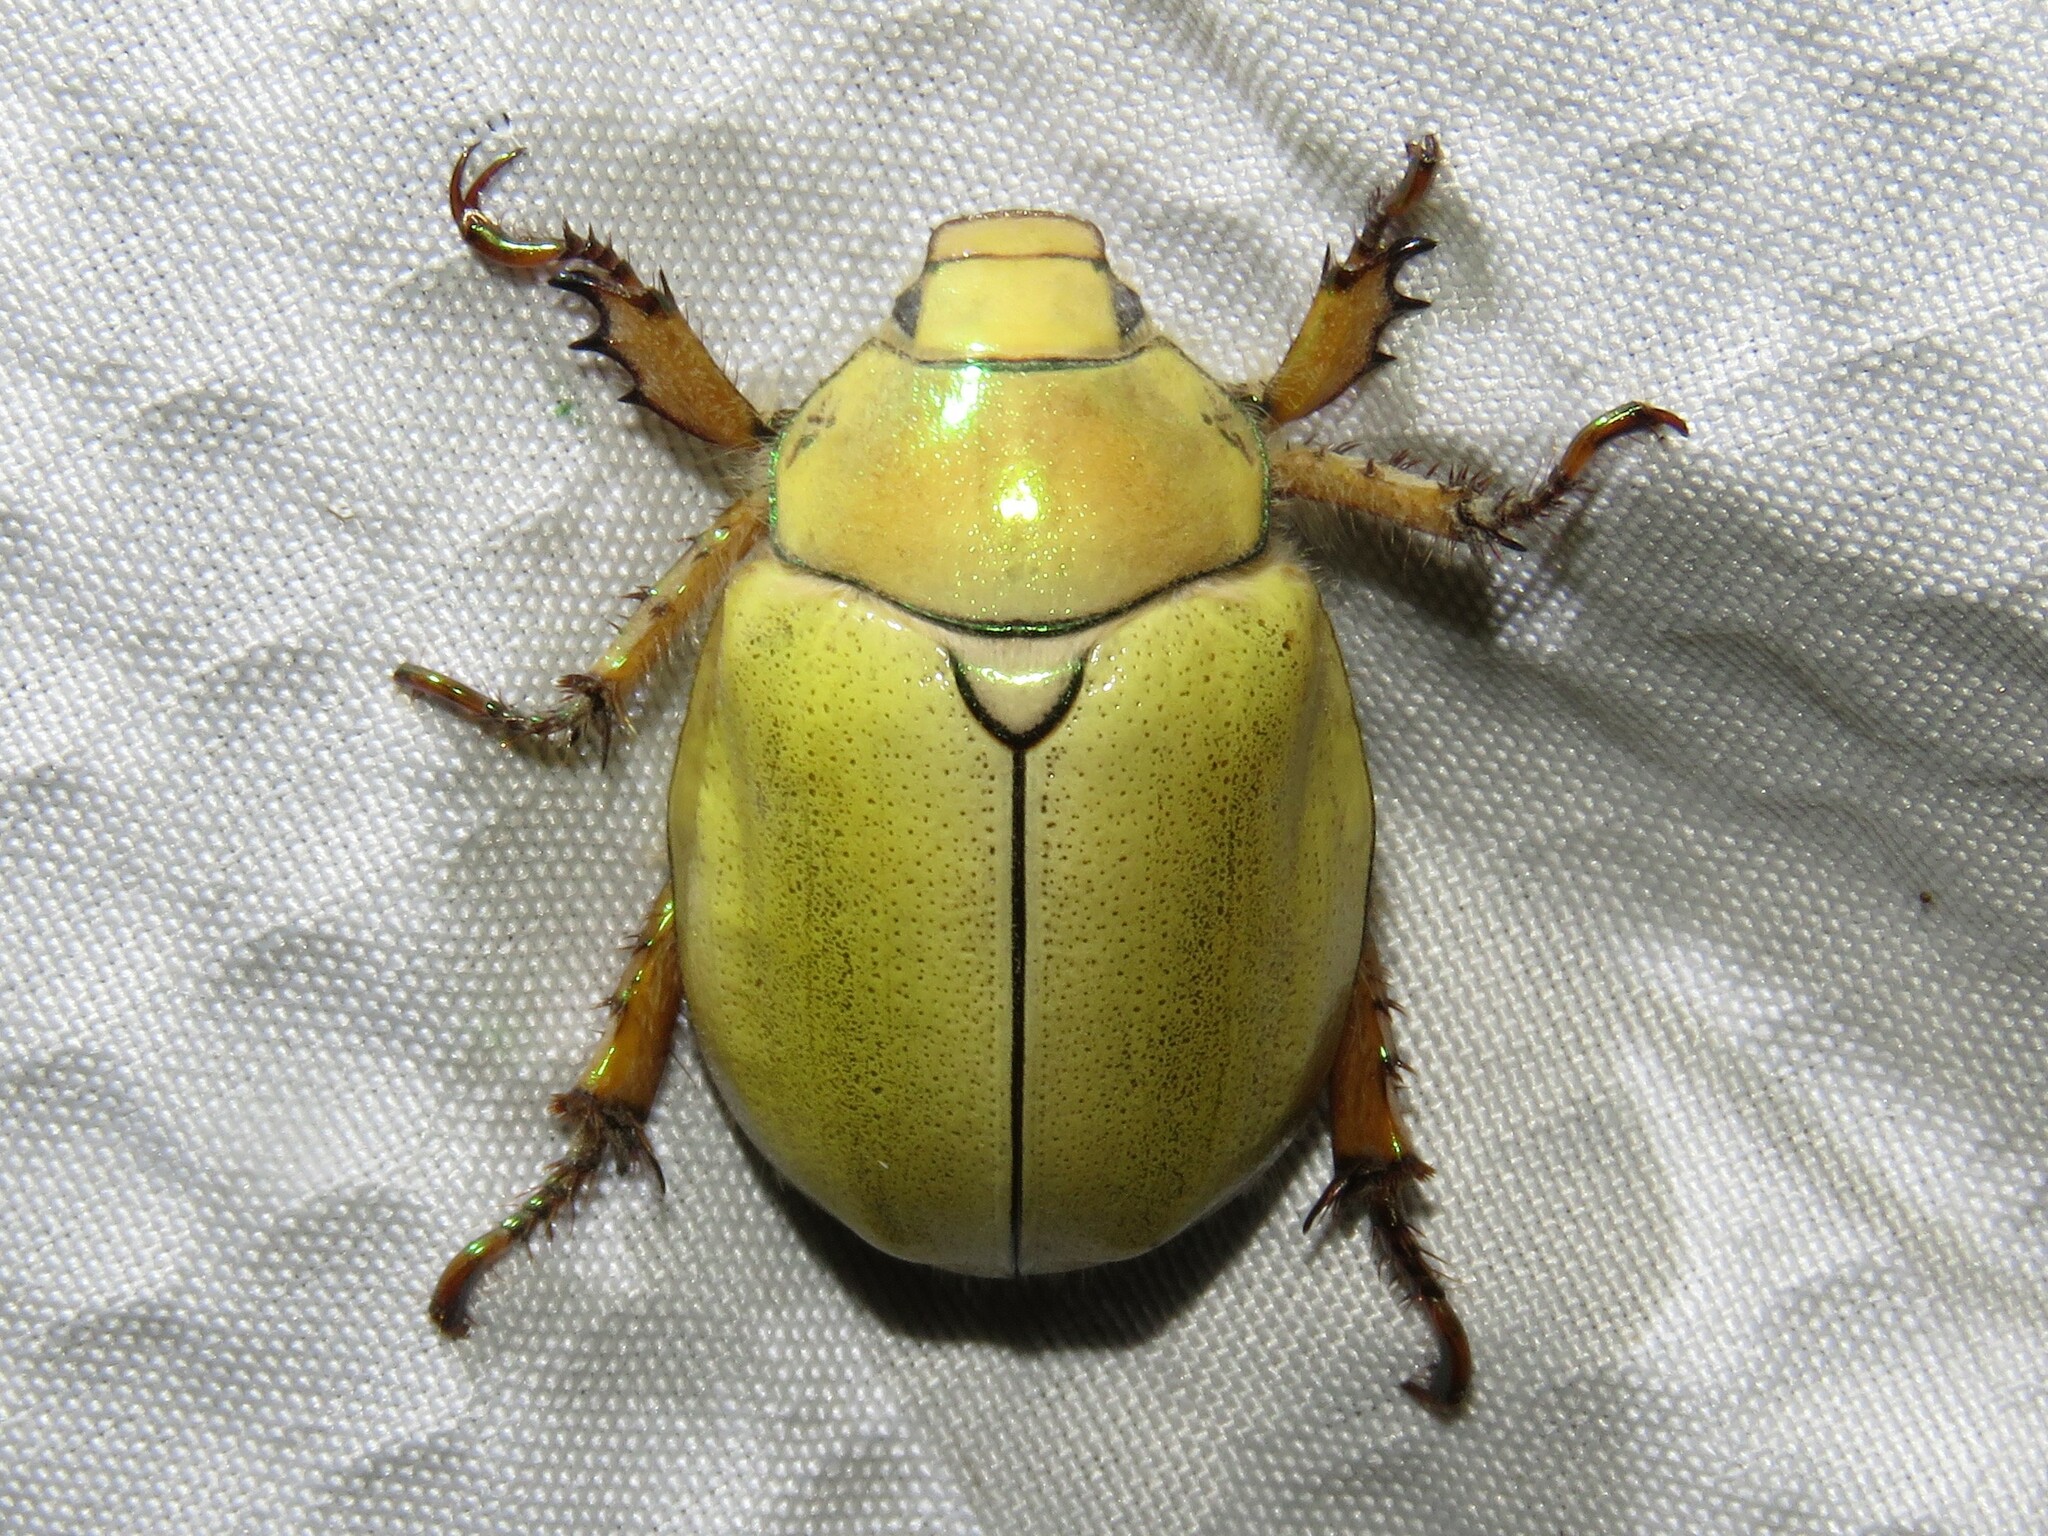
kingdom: Animalia
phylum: Arthropoda
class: Insecta
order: Coleoptera
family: Scarabaeidae
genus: Cotalpa
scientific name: Cotalpa lanigera
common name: Goldsmith beetle
